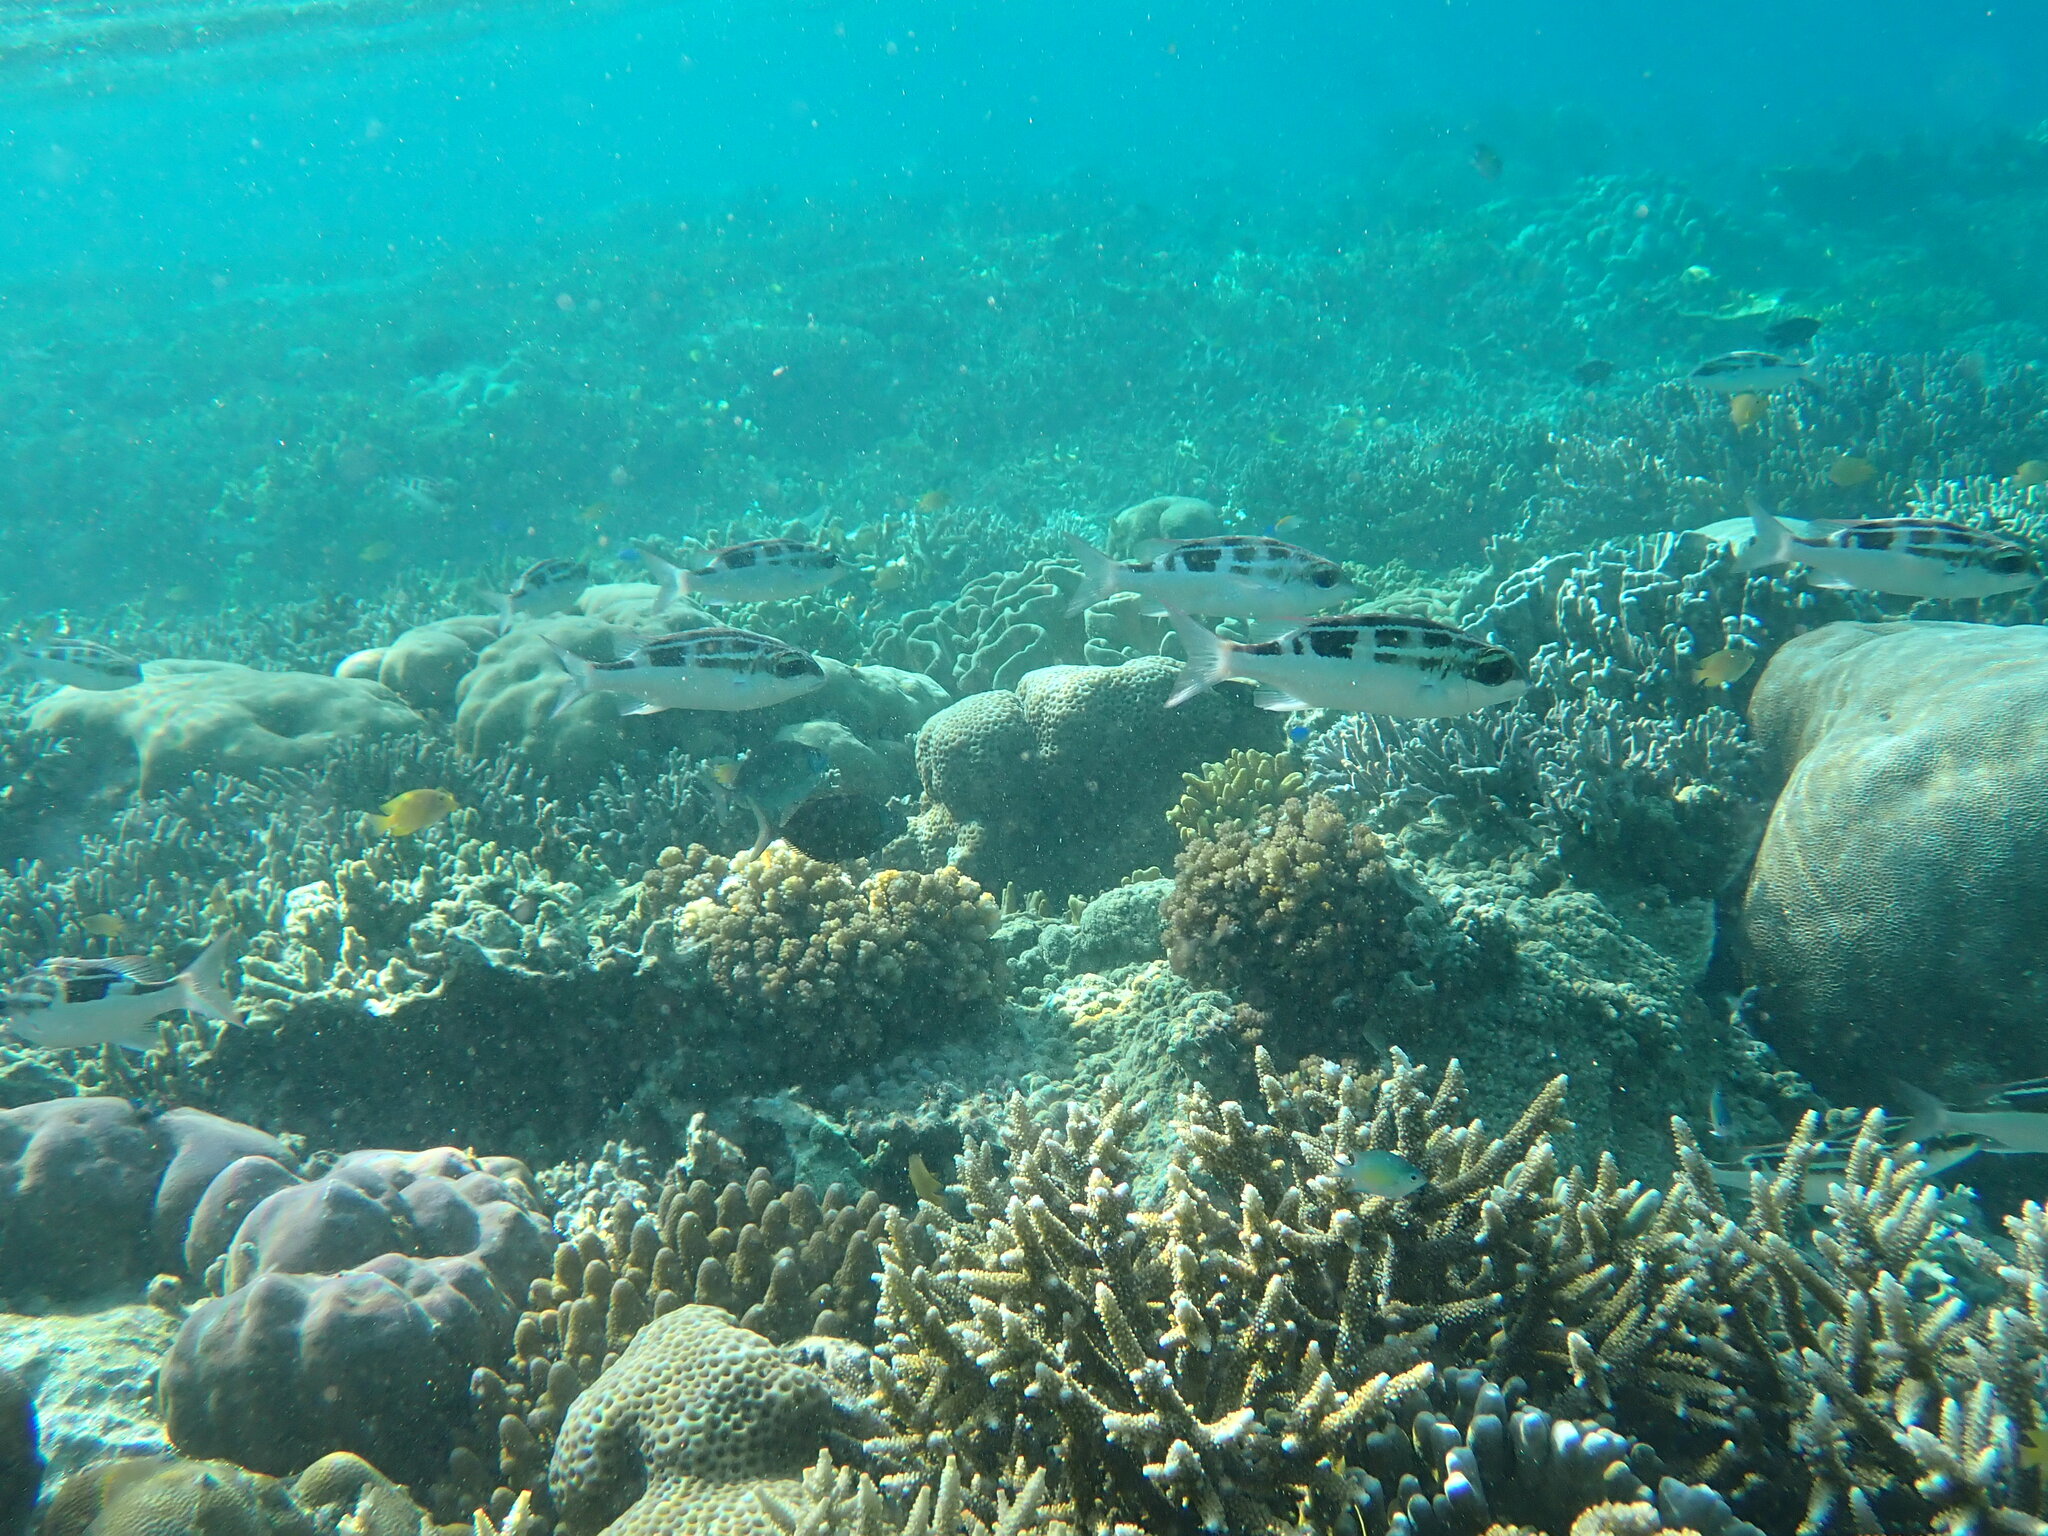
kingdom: Animalia
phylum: Chordata
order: Perciformes
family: Nemipteridae
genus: Scolopsis
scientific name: Scolopsis lineata
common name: Striped monocle bream
